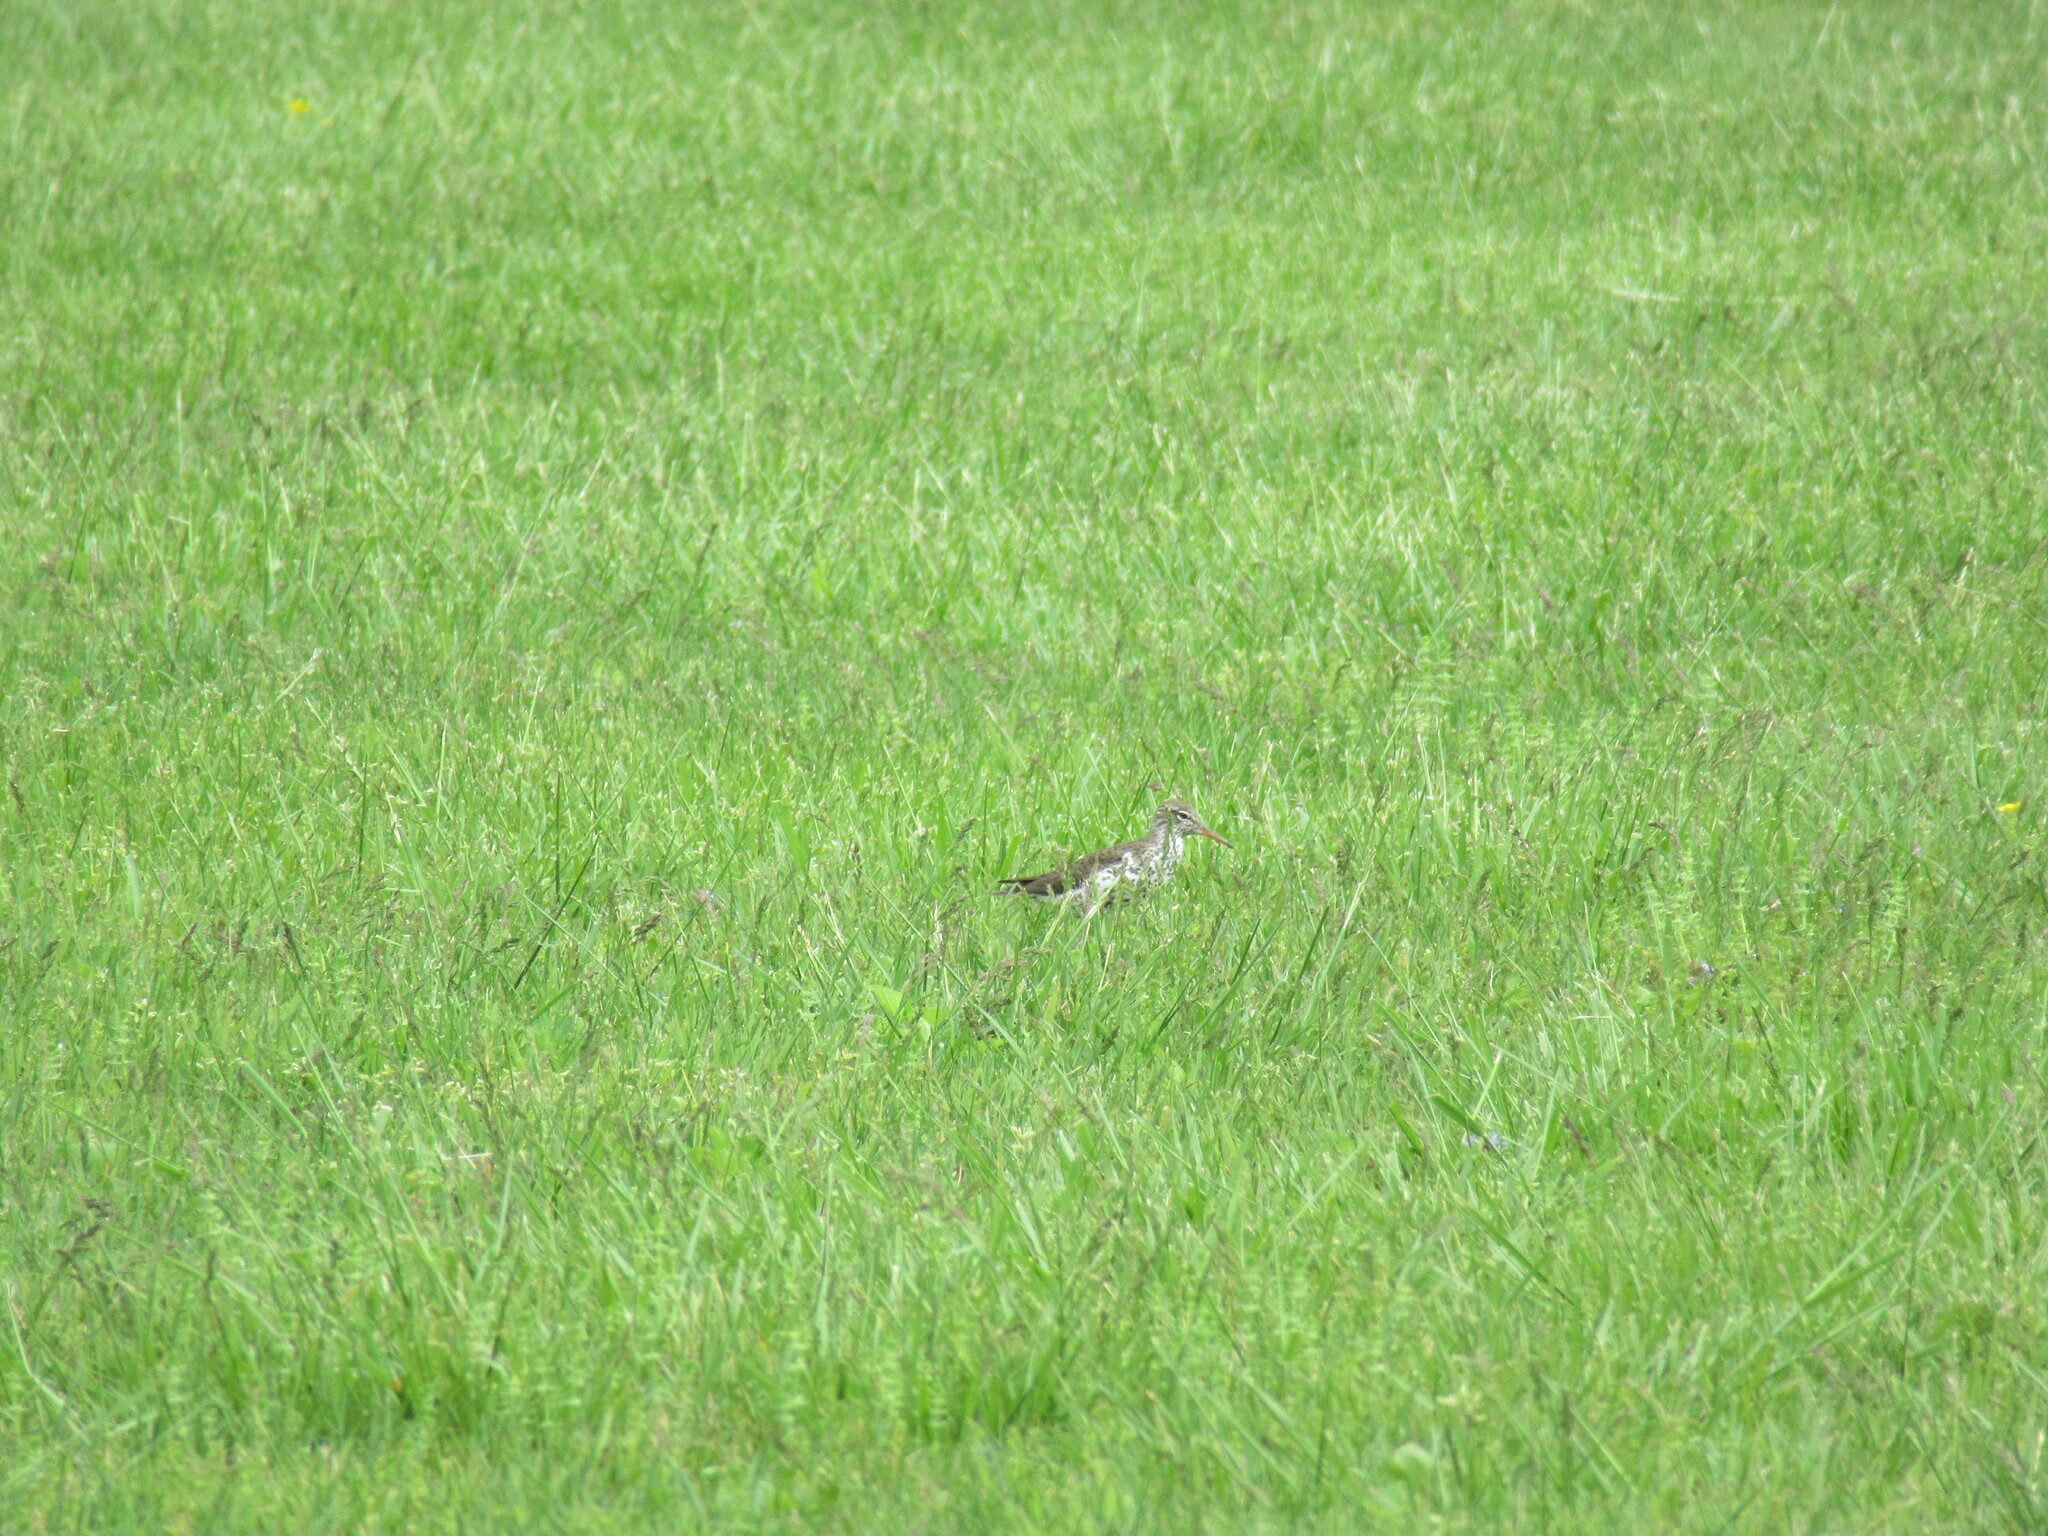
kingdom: Animalia
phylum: Chordata
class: Aves
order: Charadriiformes
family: Scolopacidae
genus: Actitis
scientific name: Actitis macularius
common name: Spotted sandpiper
